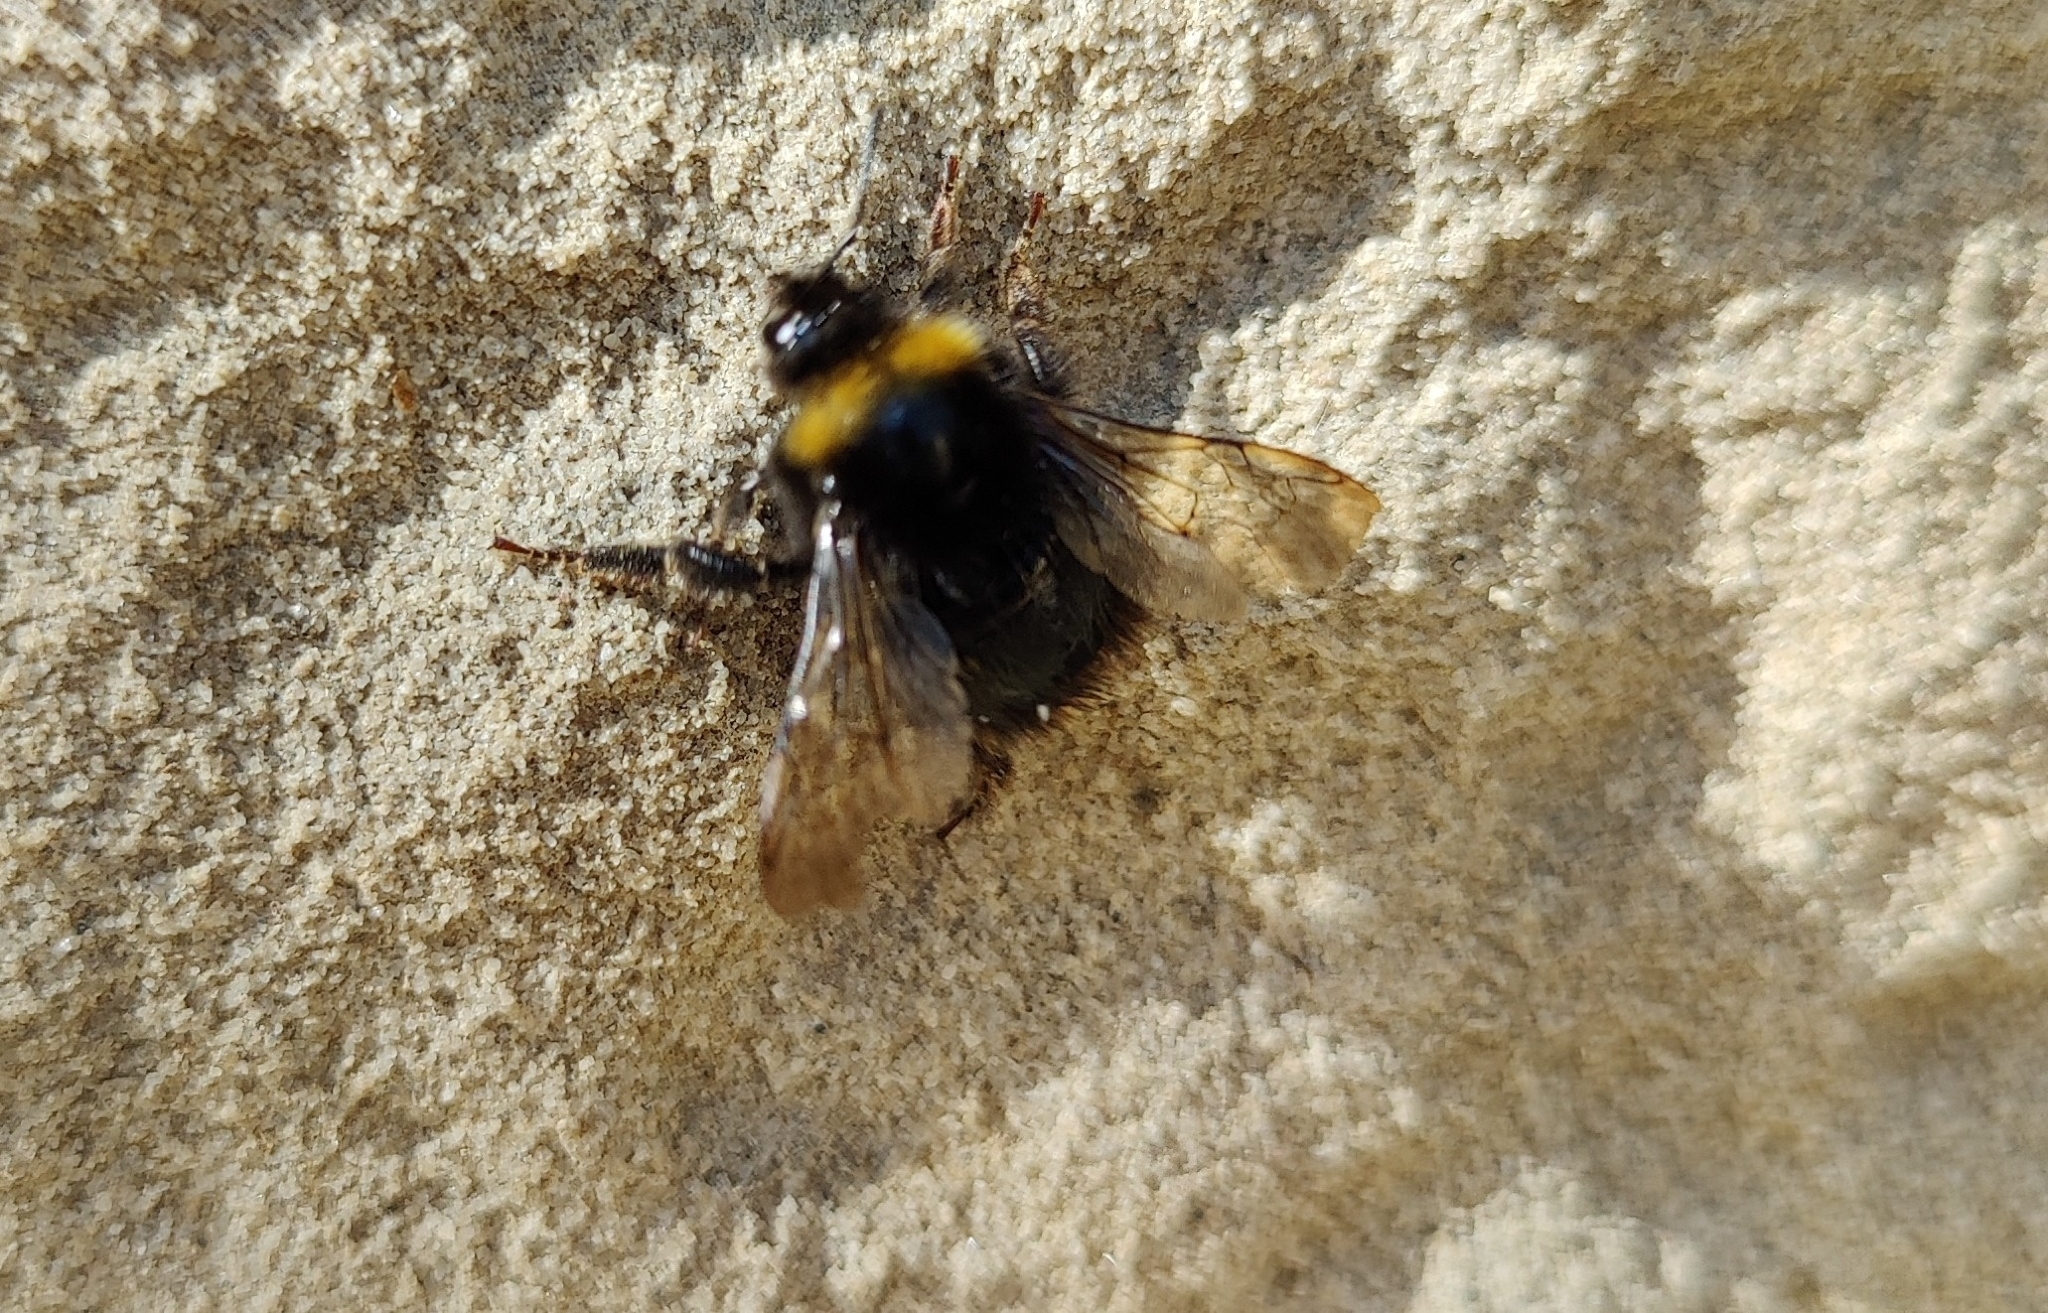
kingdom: Animalia
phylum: Arthropoda
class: Insecta
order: Hymenoptera
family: Apidae
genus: Bombus
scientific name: Bombus pratorum
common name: Early humble-bee
